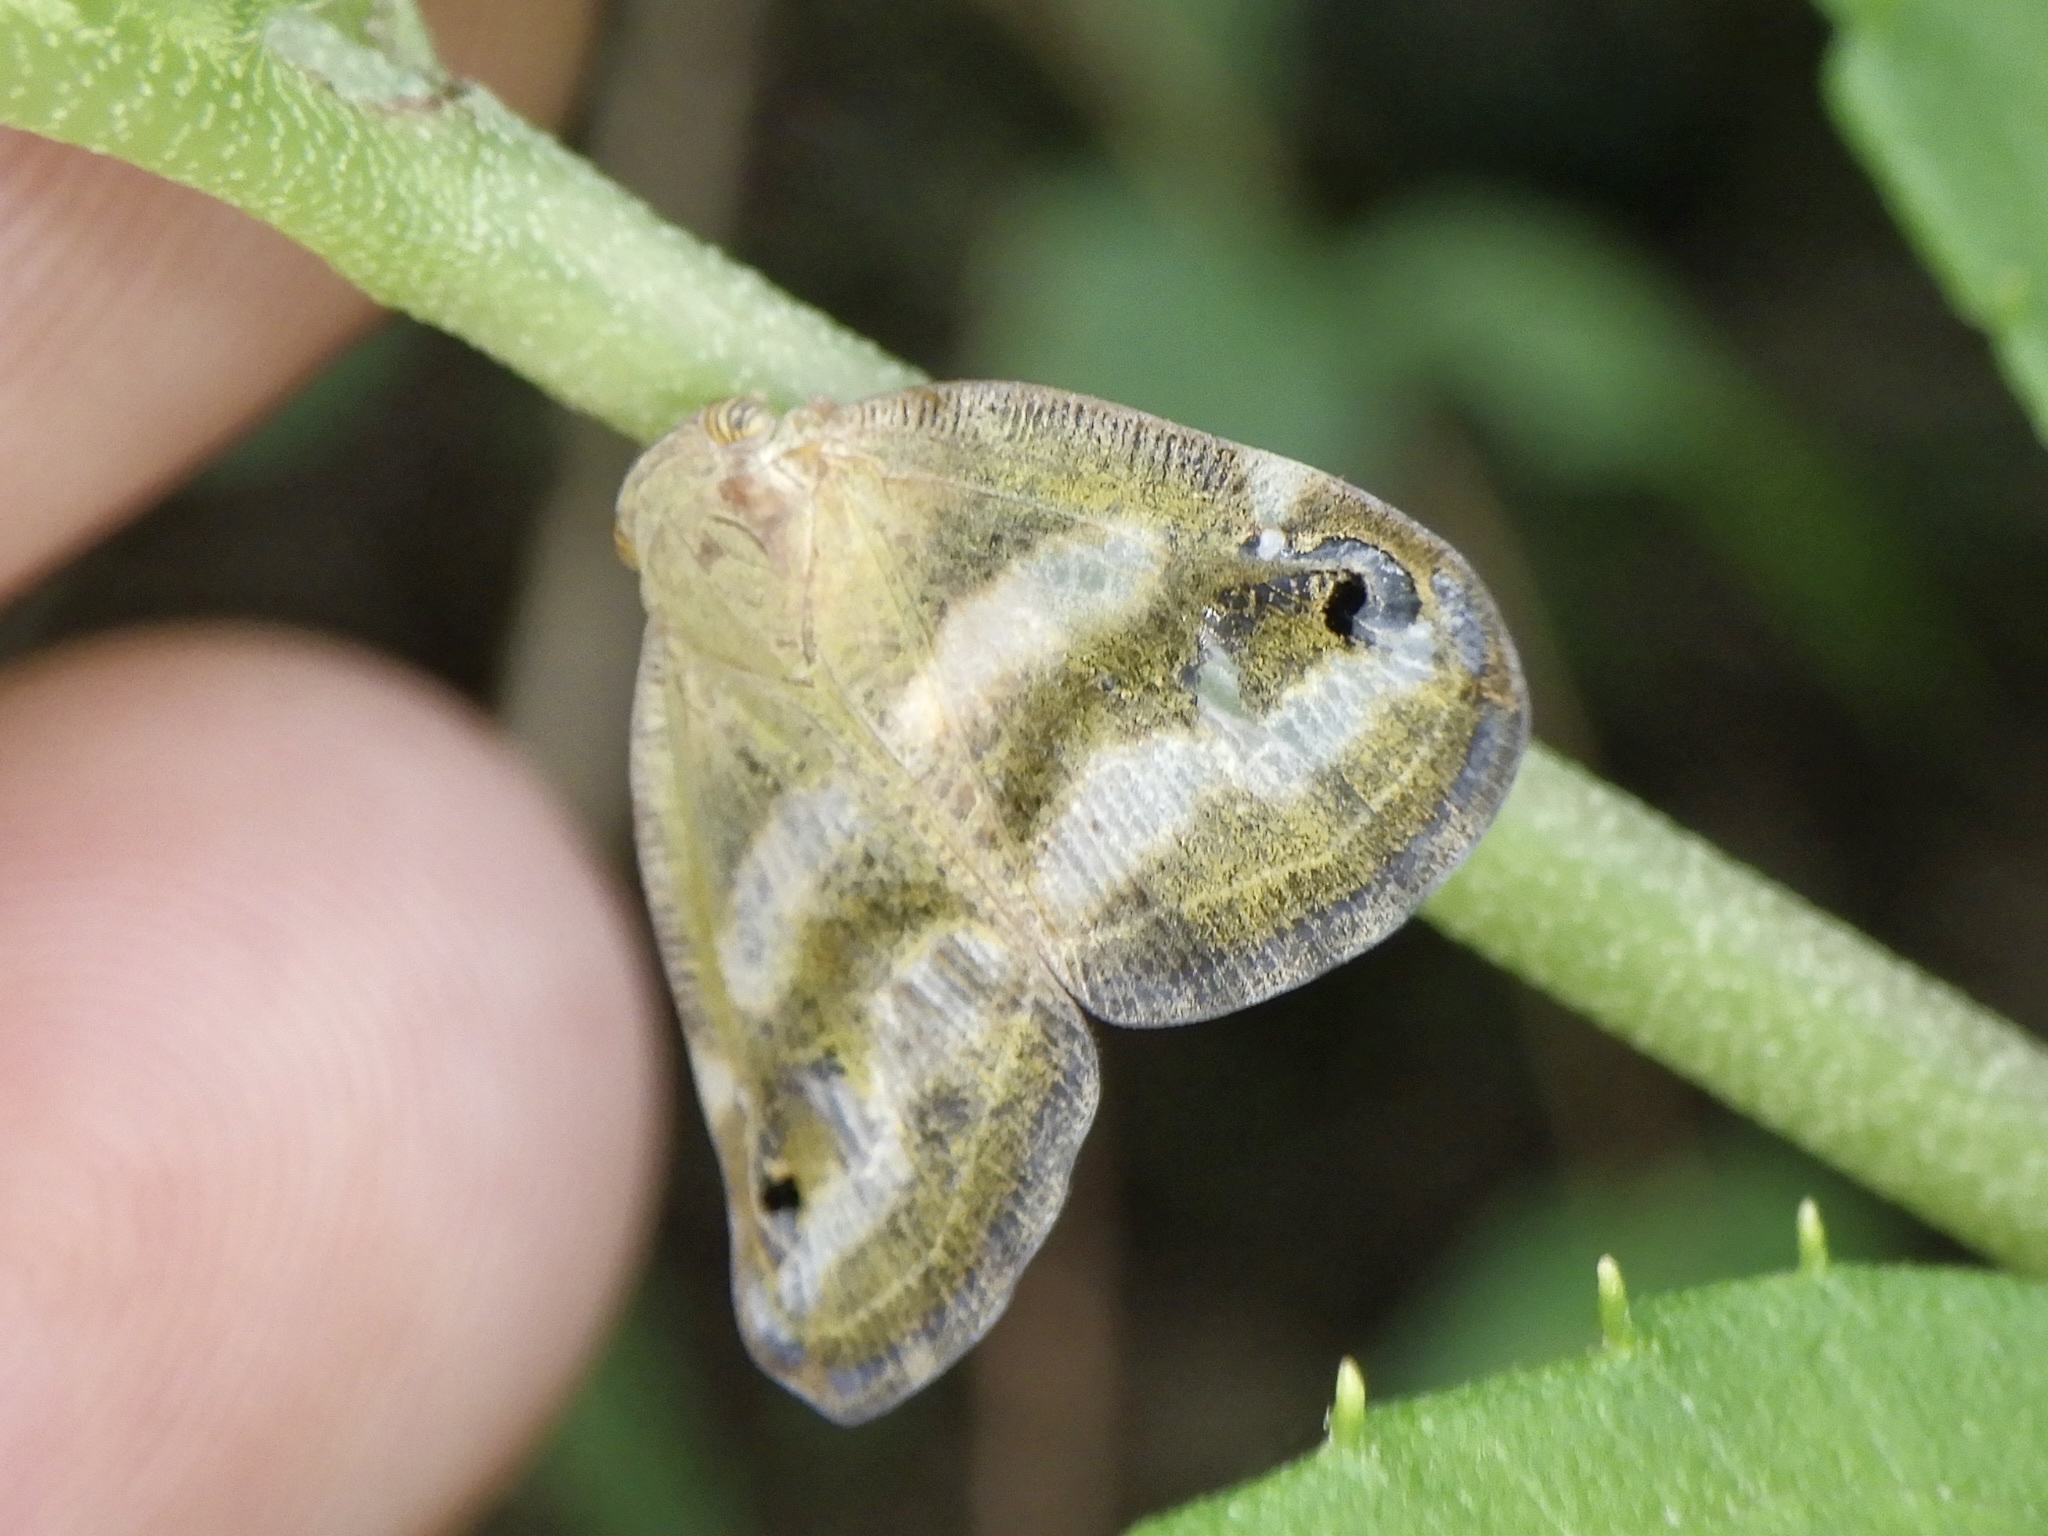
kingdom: Animalia
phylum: Arthropoda
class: Insecta
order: Hemiptera
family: Ricaniidae
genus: Orosanga
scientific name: Orosanga japonica
